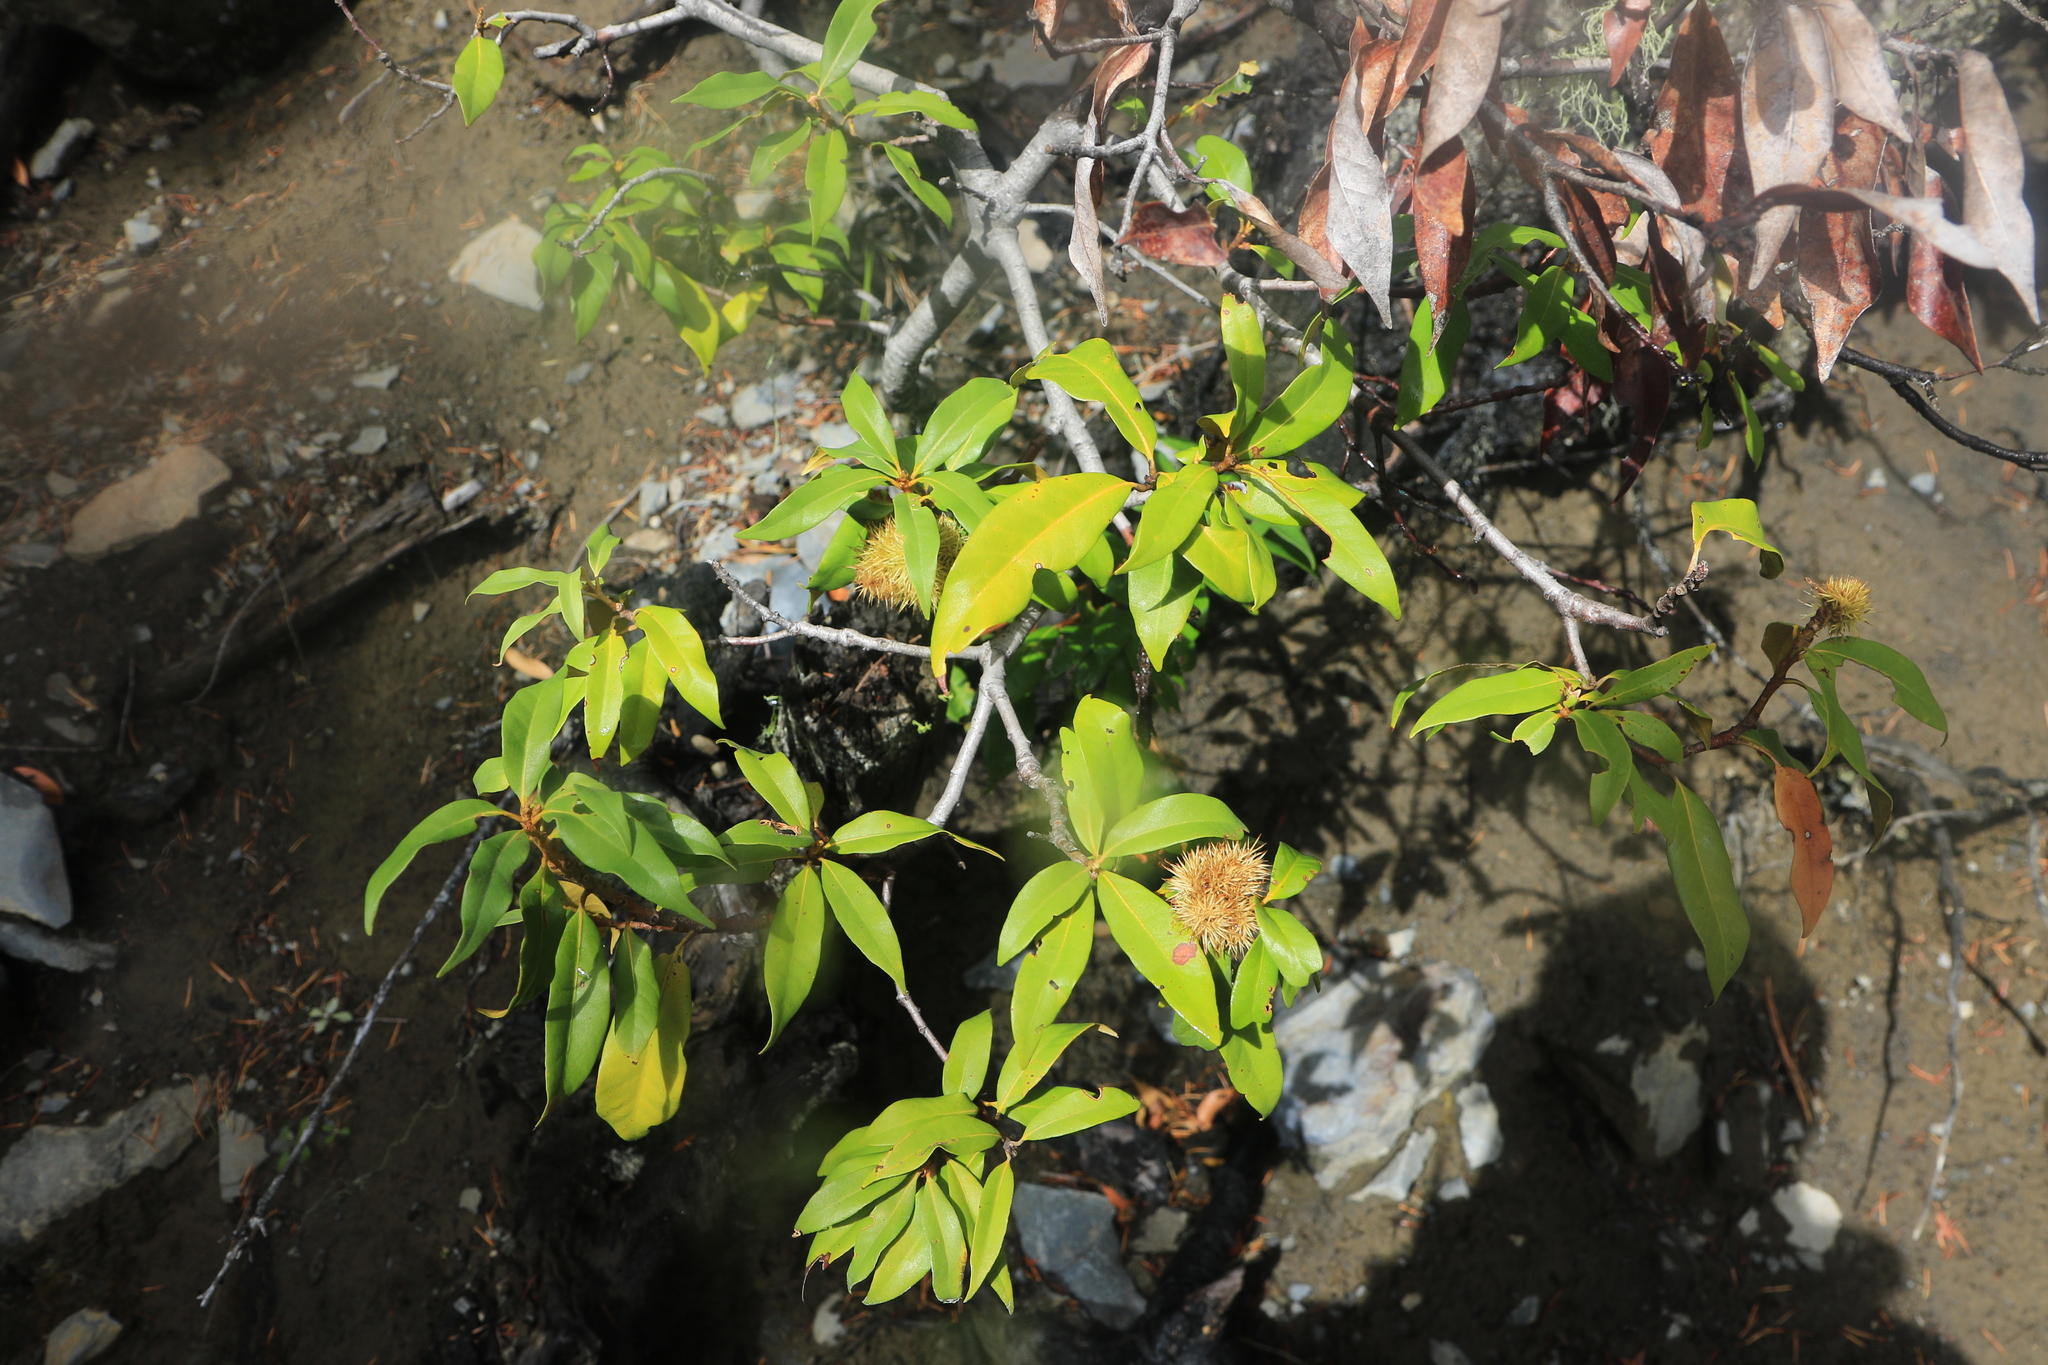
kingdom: Plantae
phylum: Tracheophyta
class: Magnoliopsida
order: Fagales
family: Fagaceae
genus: Chrysolepis
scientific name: Chrysolepis chrysophylla
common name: Giant chinquapin
